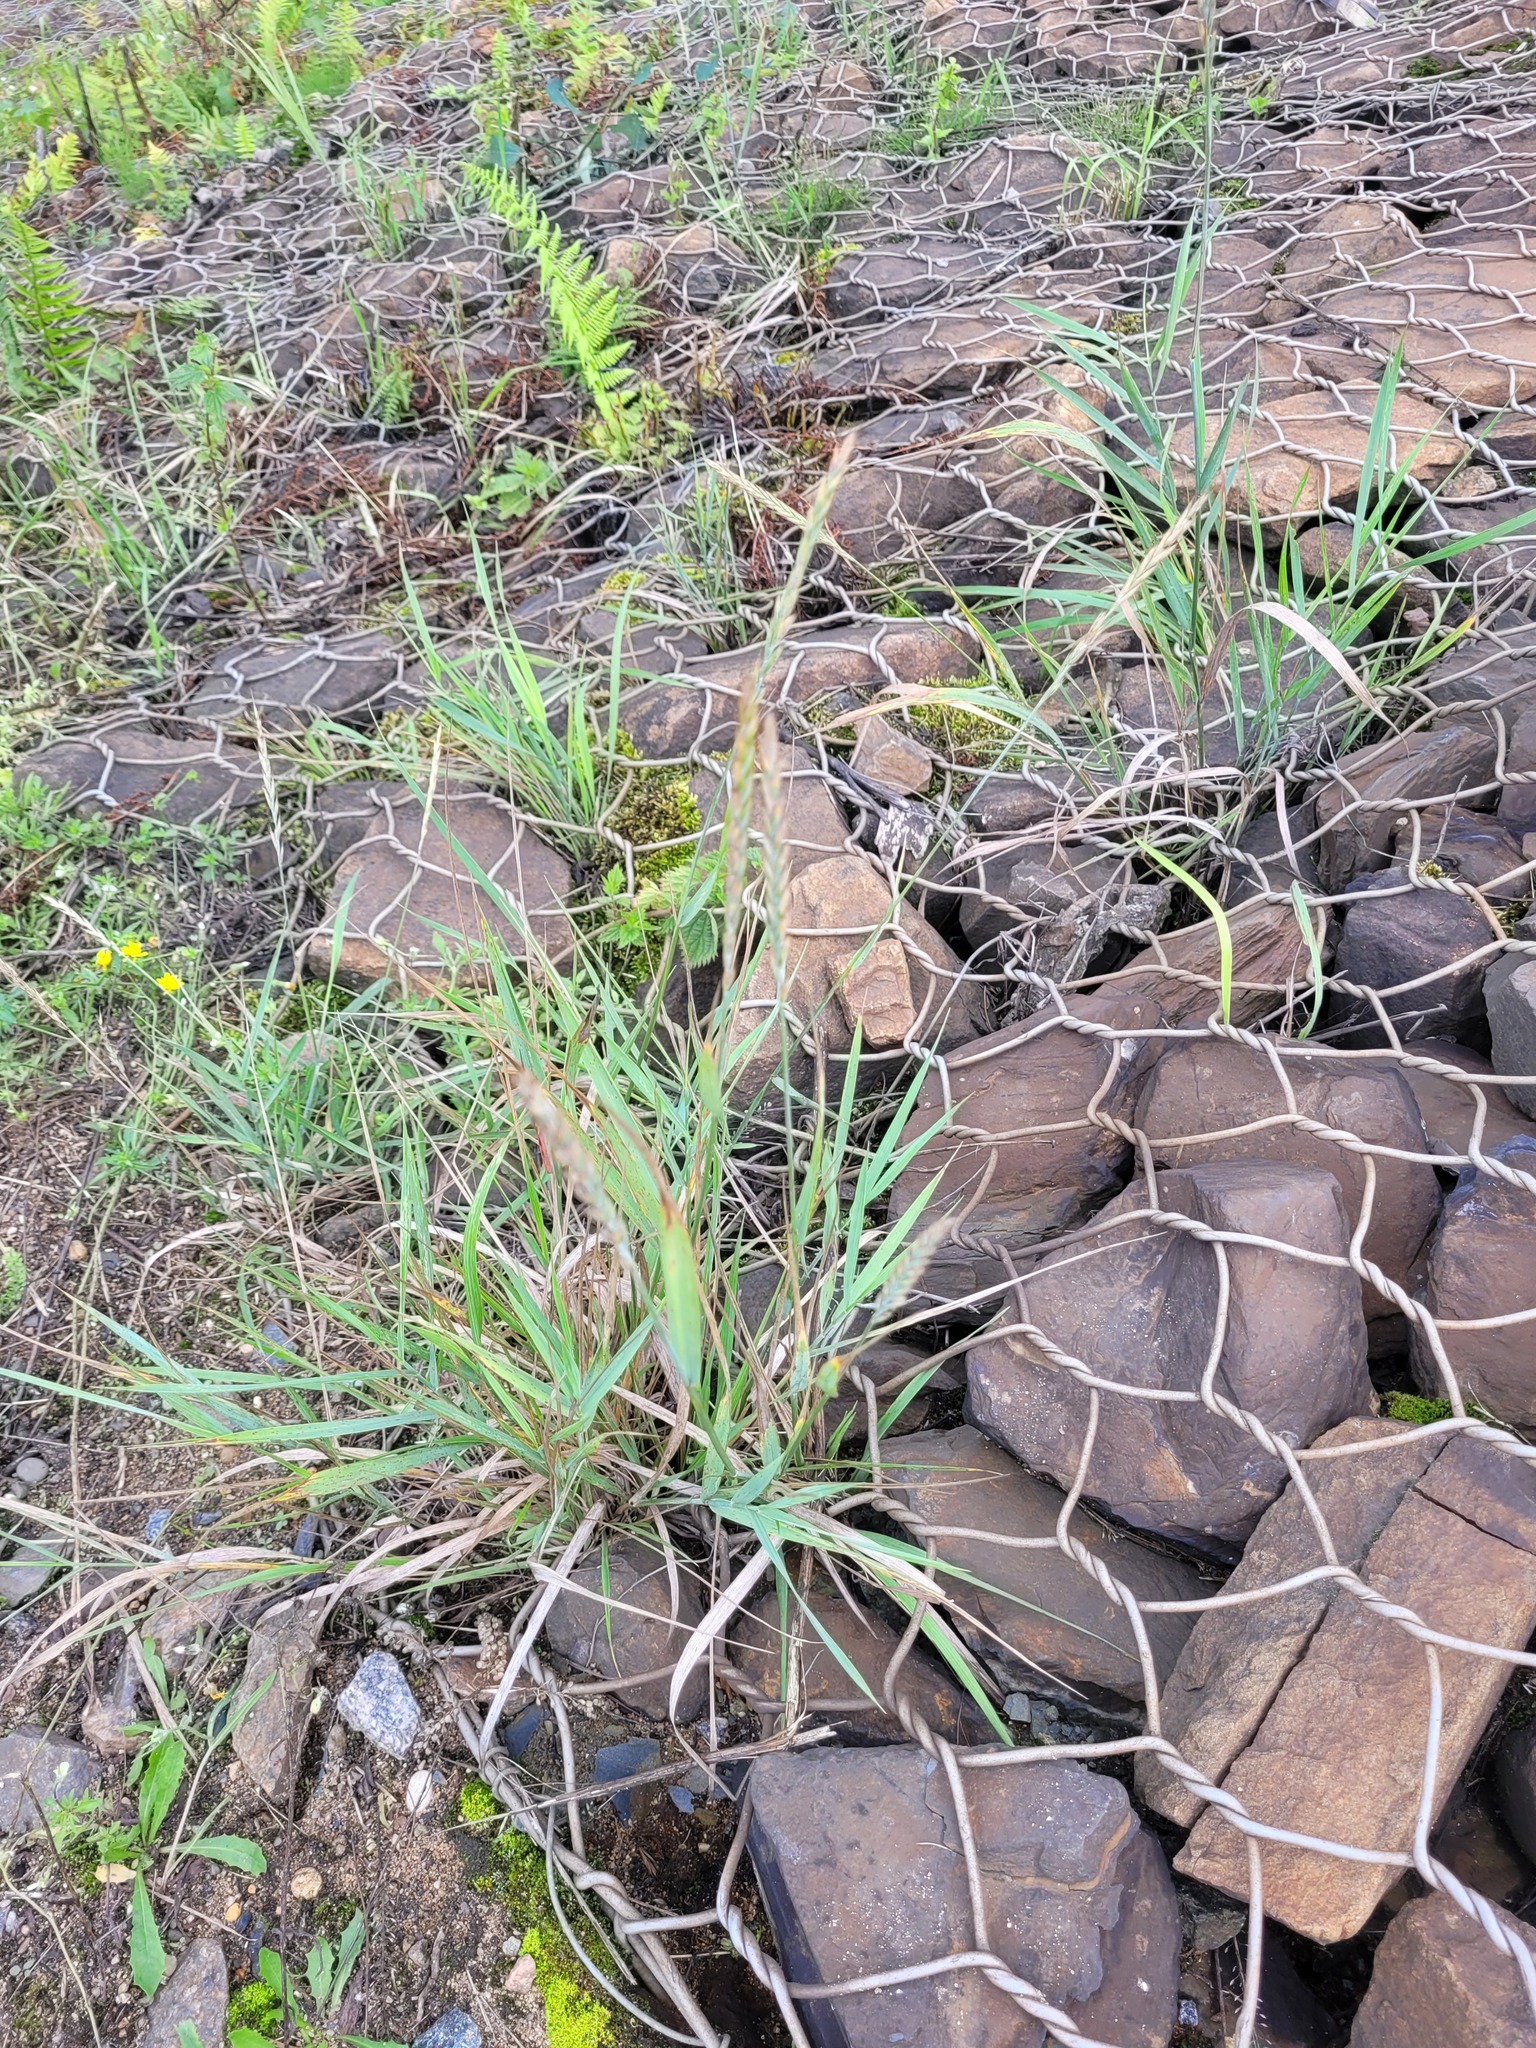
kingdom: Plantae
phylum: Tracheophyta
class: Liliopsida
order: Poales
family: Poaceae
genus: Elymus
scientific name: Elymus repens
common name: Quackgrass
